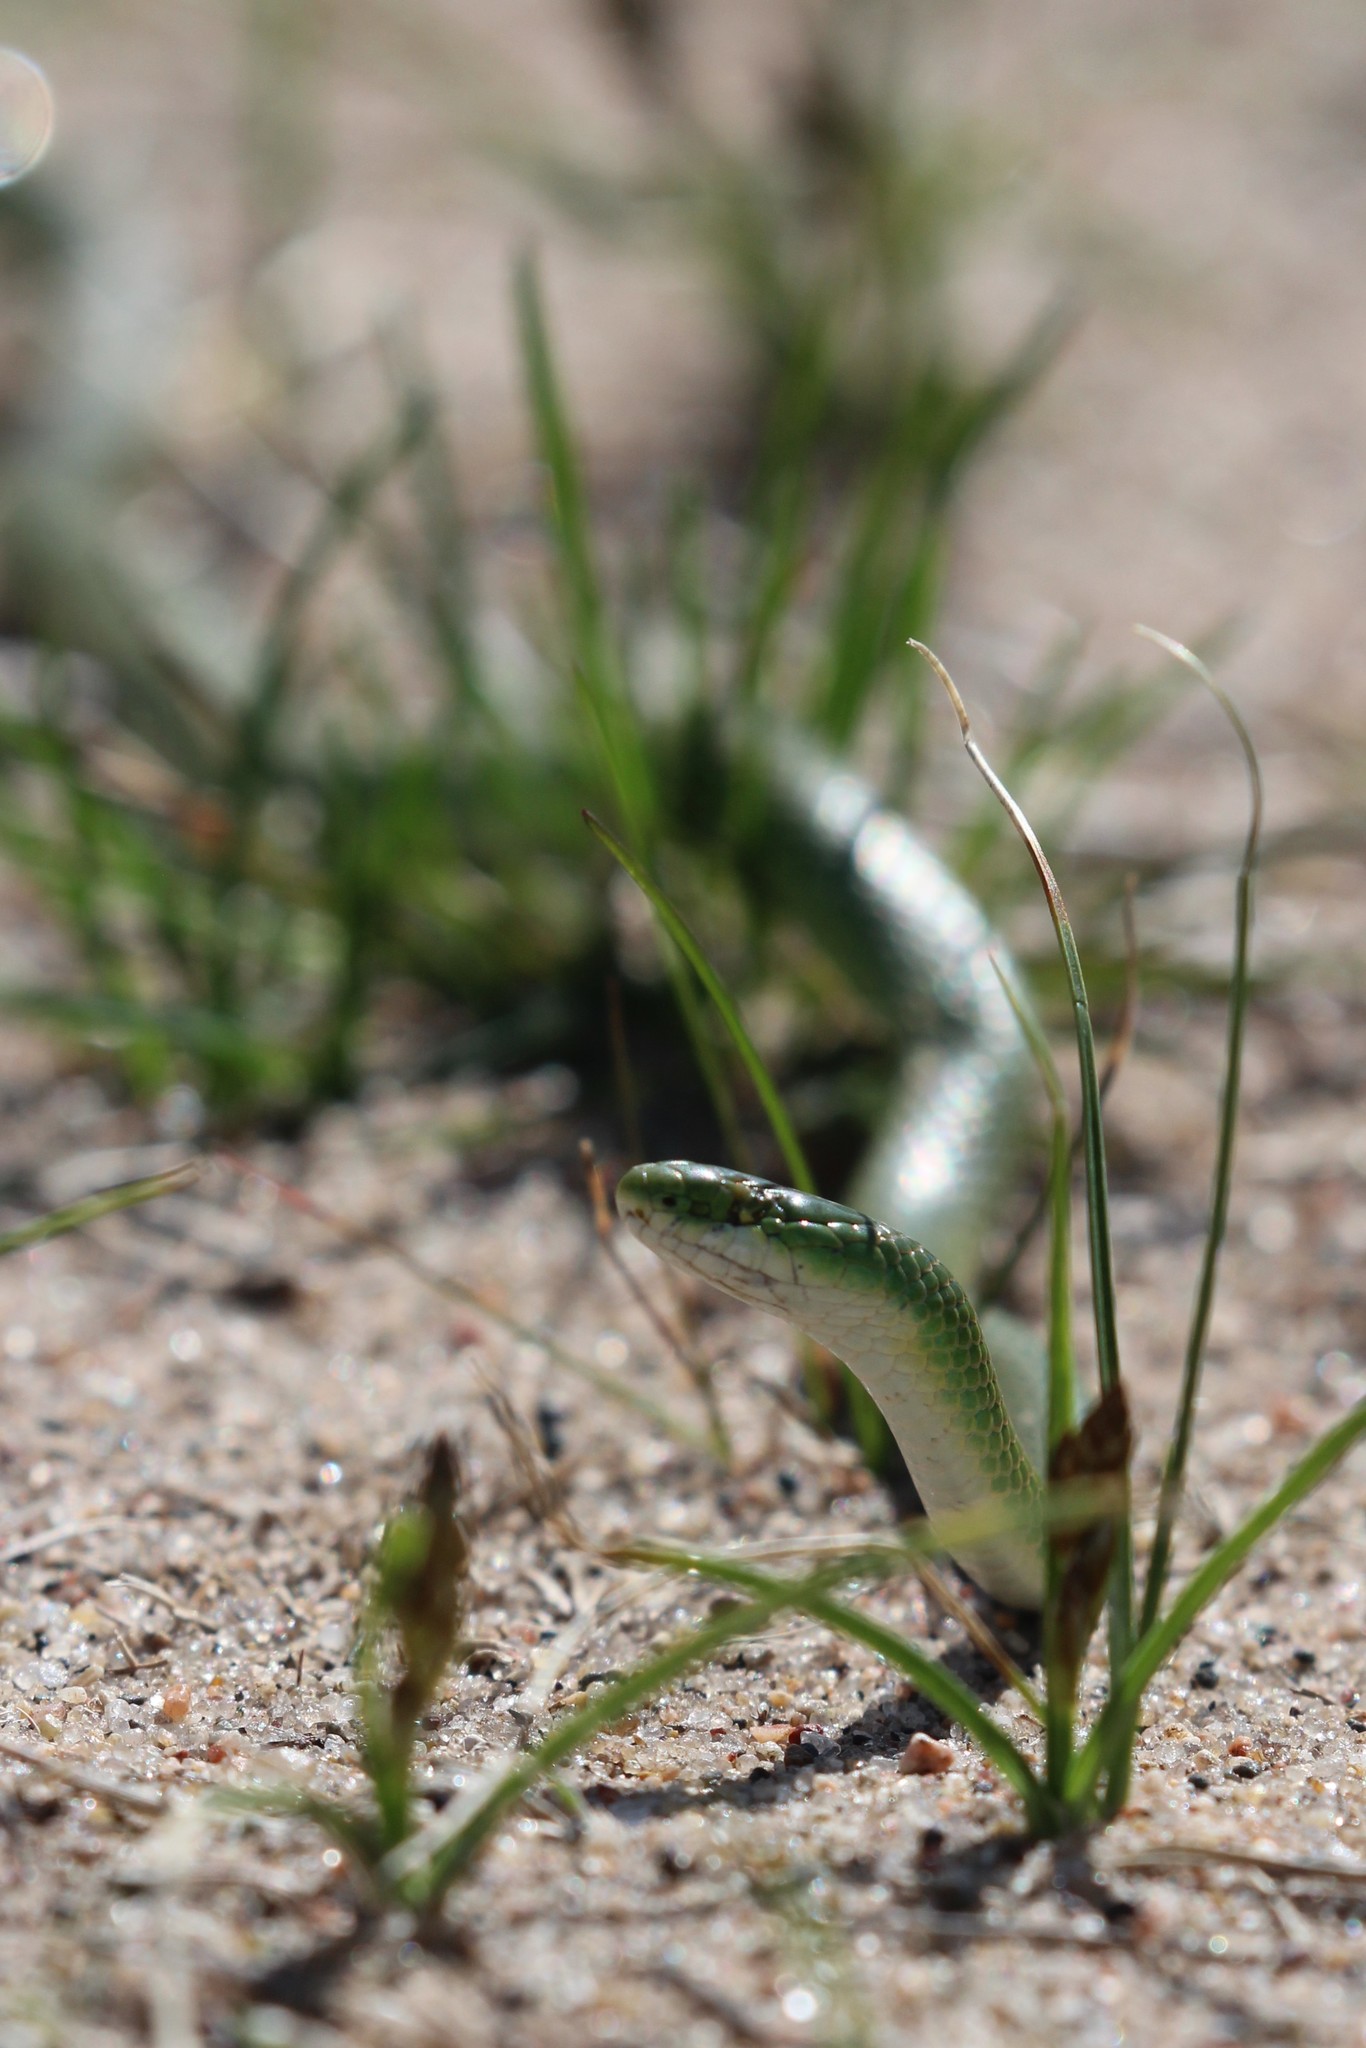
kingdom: Animalia
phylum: Chordata
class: Squamata
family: Colubridae
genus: Opheodrys
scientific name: Opheodrys vernalis
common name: Smooth green snake
